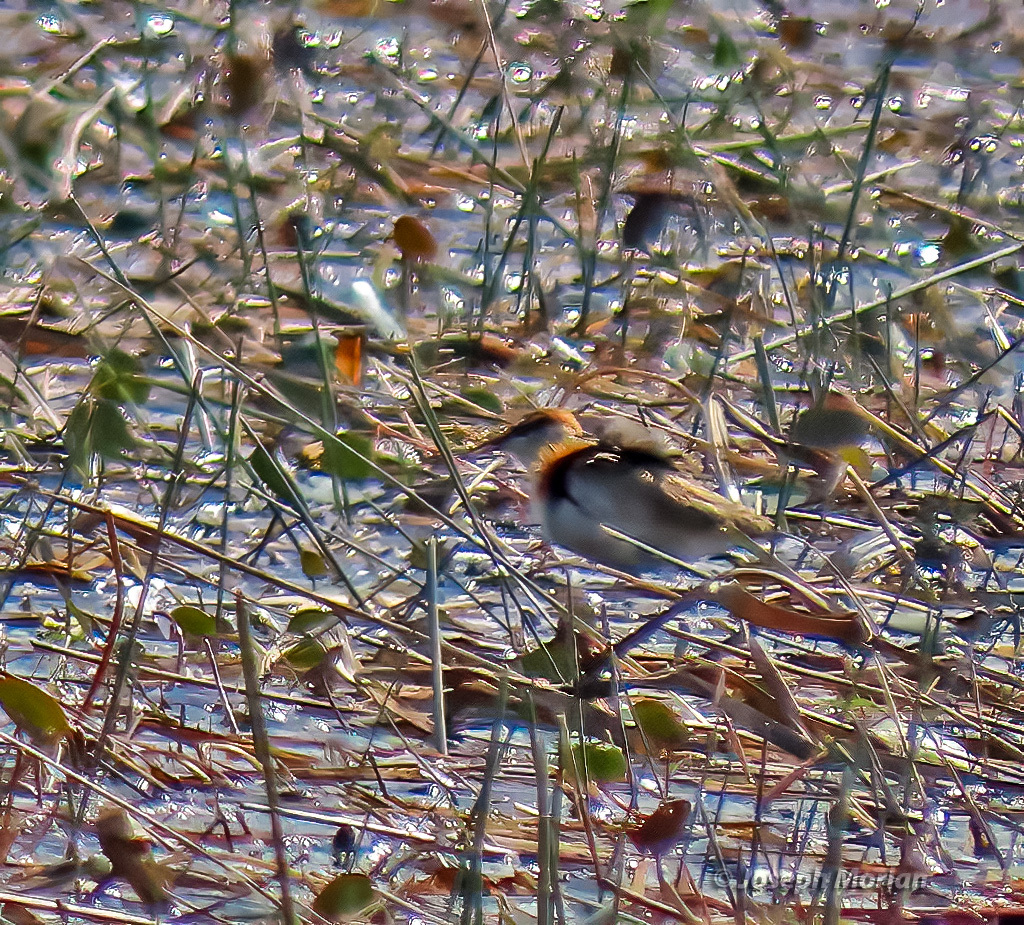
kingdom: Animalia
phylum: Chordata
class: Aves
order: Charadriiformes
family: Jacanidae
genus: Microparra
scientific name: Microparra capensis
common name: Lesser jacana
